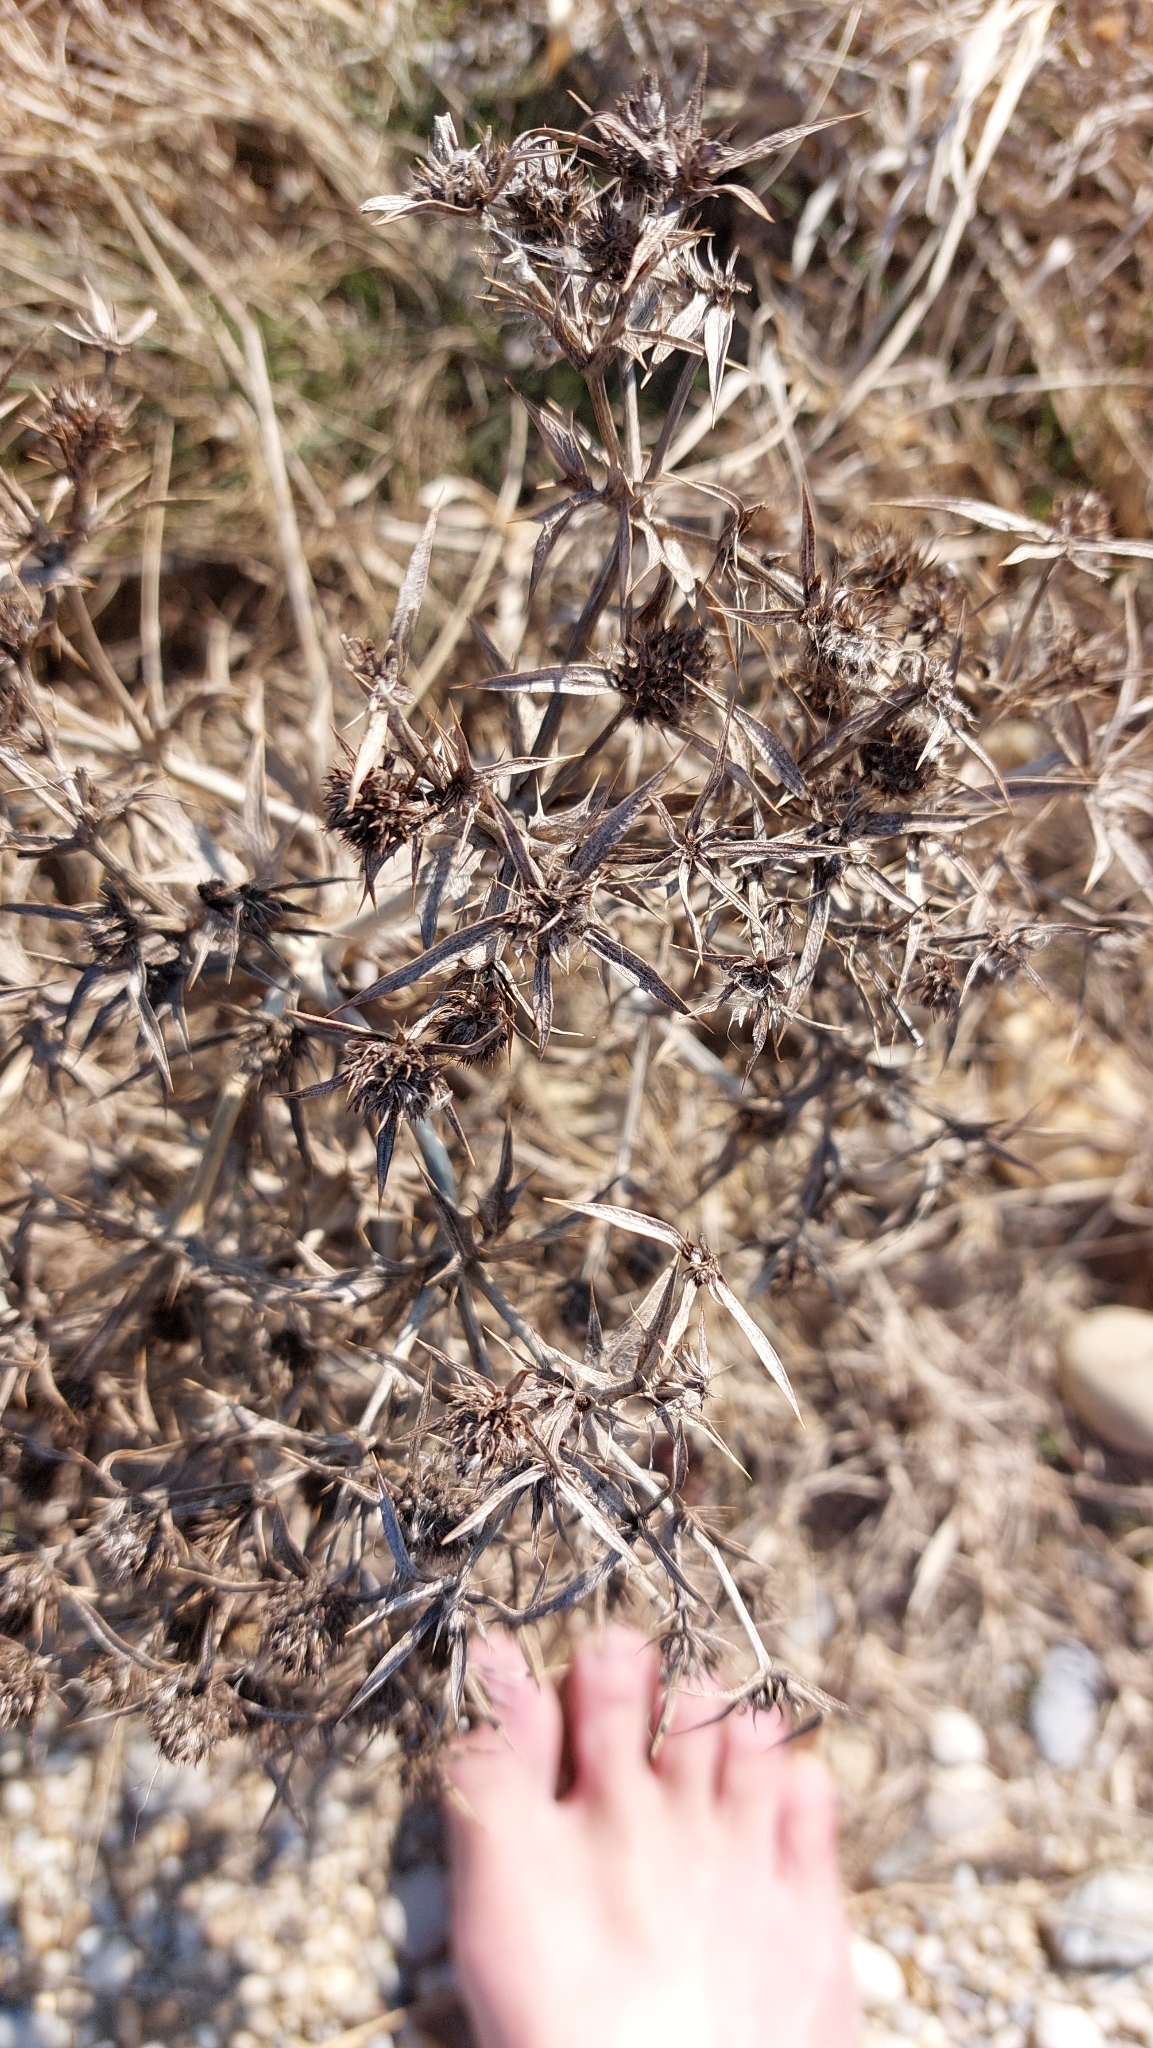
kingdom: Plantae
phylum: Tracheophyta
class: Magnoliopsida
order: Apiales
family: Apiaceae
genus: Eryngium
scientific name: Eryngium campestre
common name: Field eryngo
